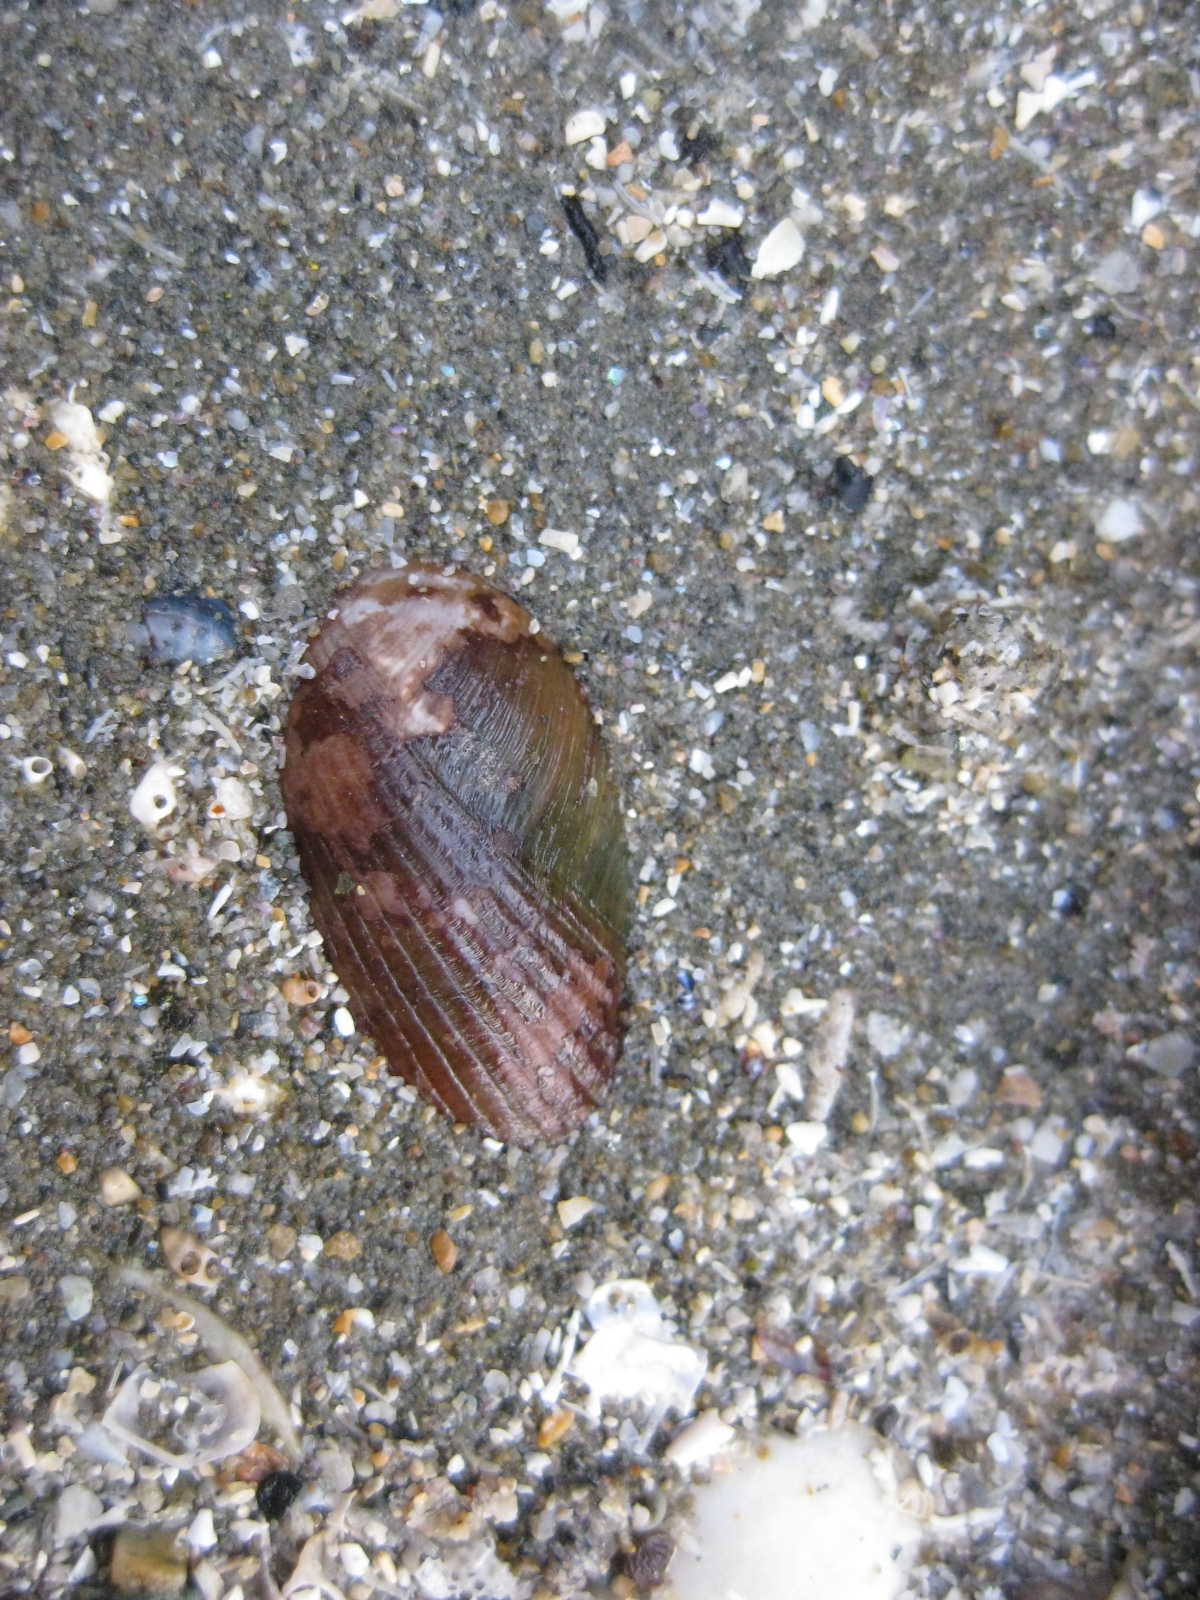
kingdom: Animalia
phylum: Mollusca
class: Bivalvia
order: Mytilida
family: Mytilidae
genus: Musculus
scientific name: Musculus impactus
